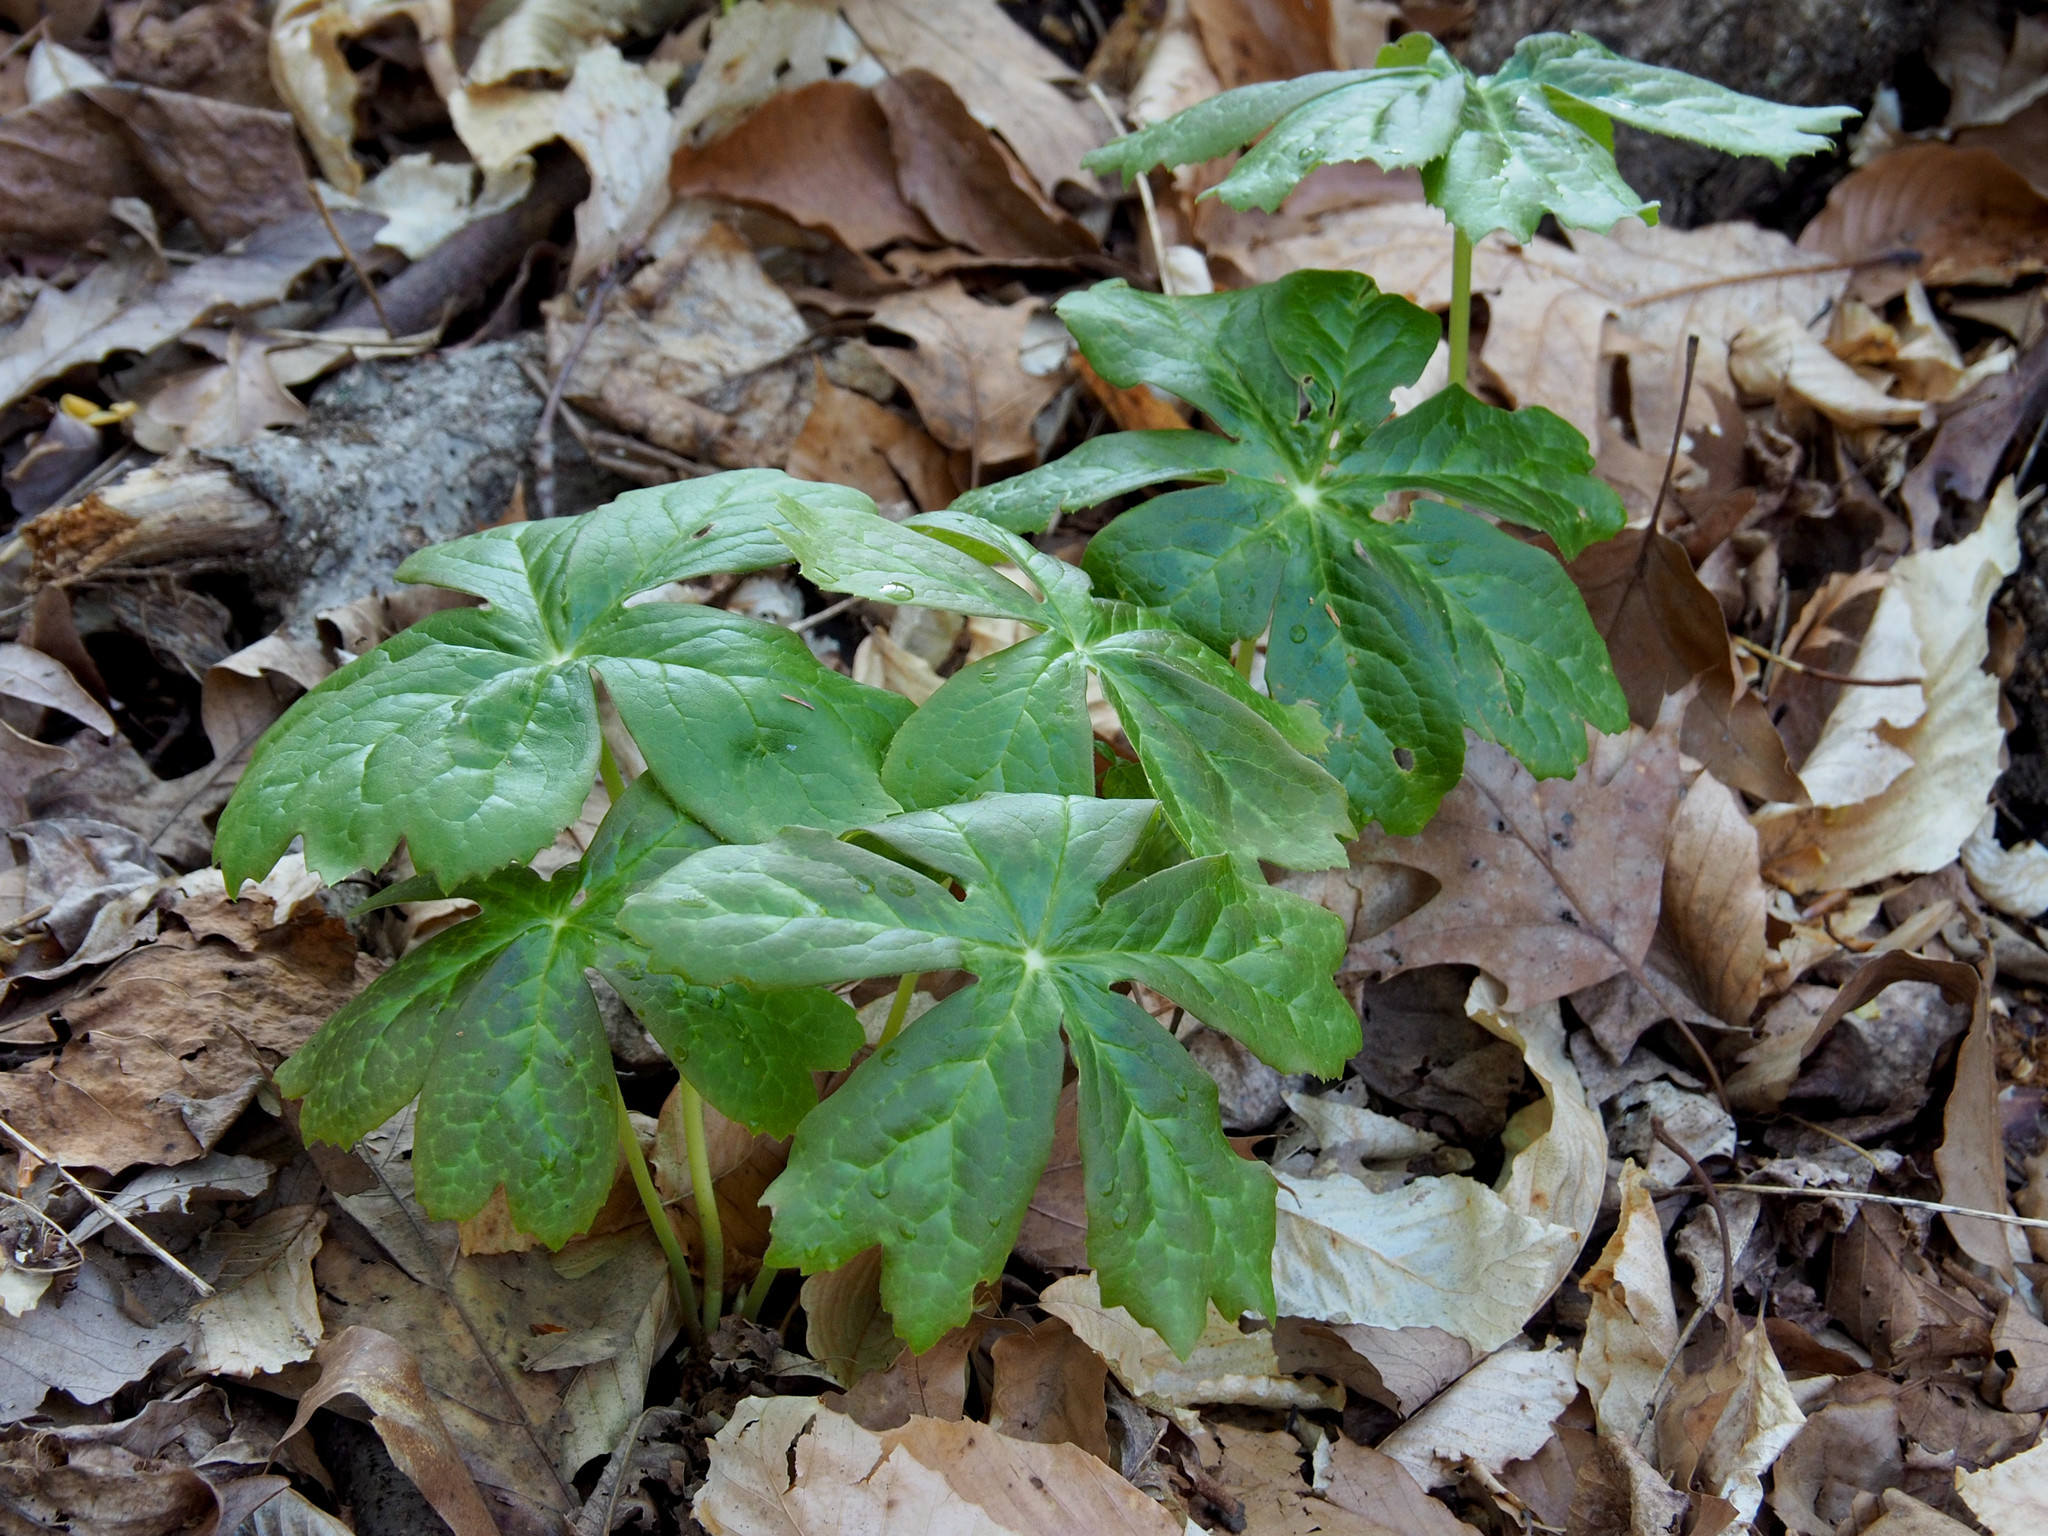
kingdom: Plantae
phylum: Tracheophyta
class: Magnoliopsida
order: Ranunculales
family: Berberidaceae
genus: Podophyllum
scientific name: Podophyllum peltatum
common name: Wild mandrake
